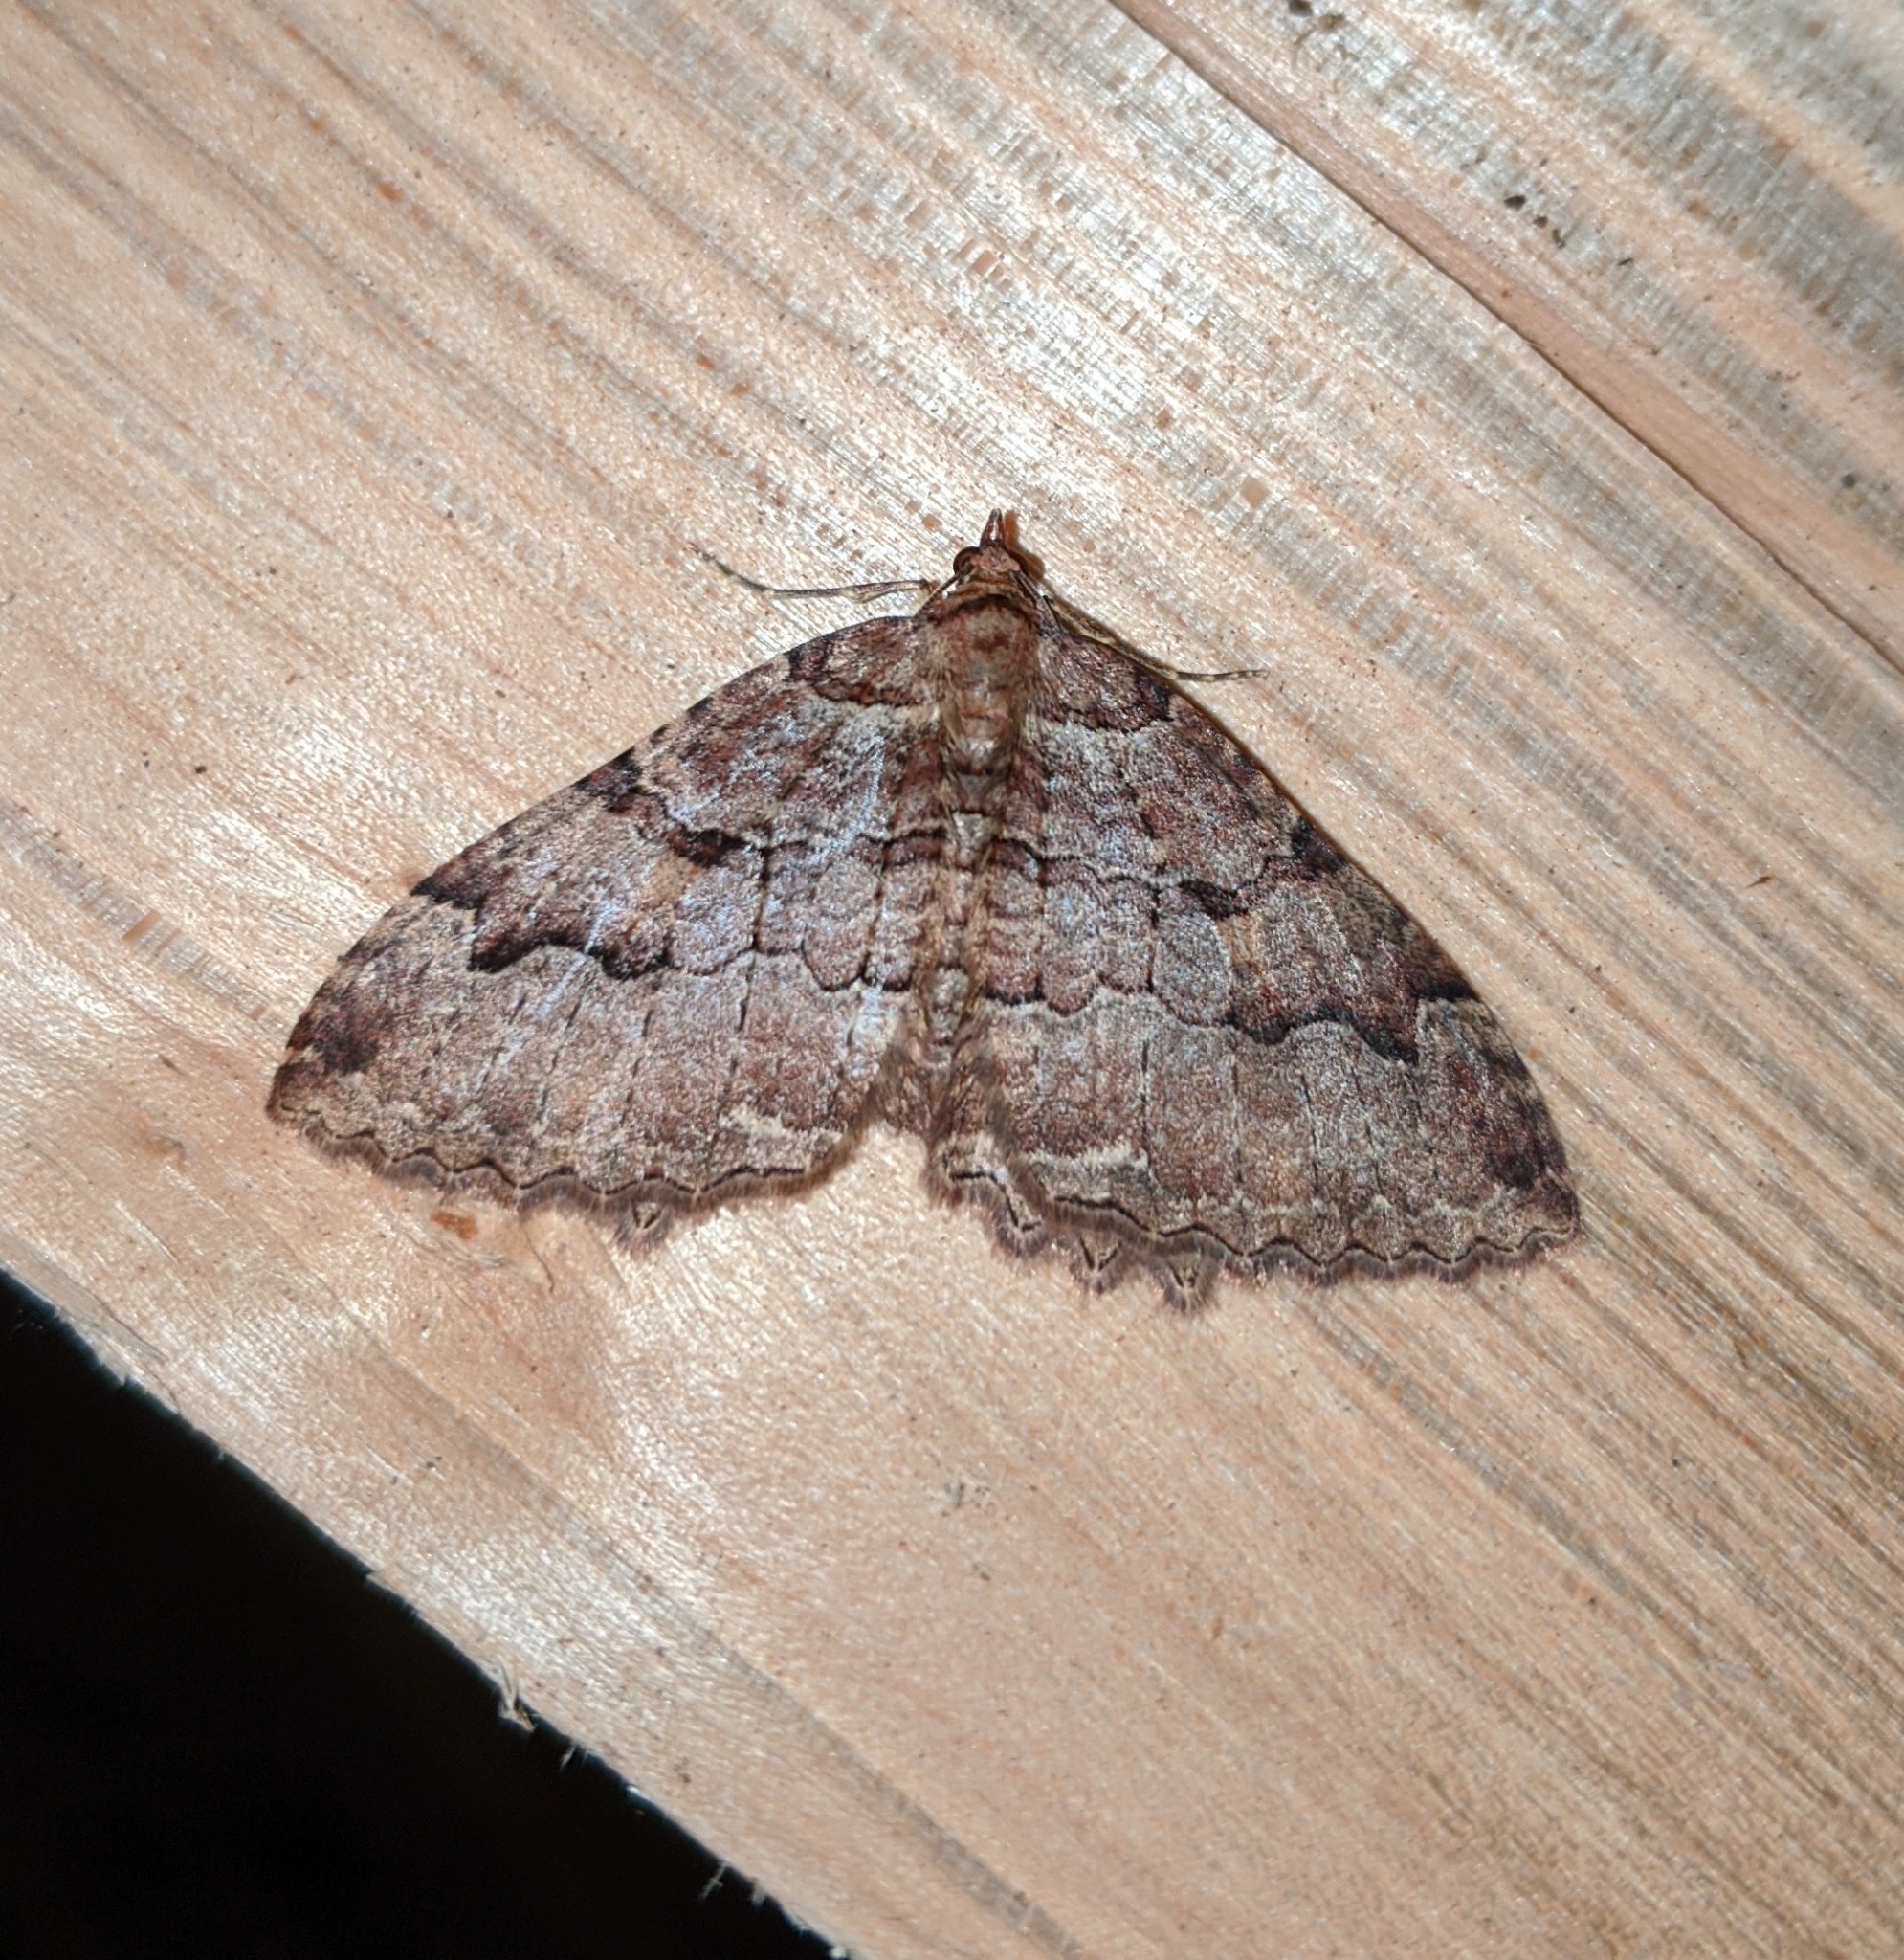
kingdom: Animalia
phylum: Arthropoda
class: Insecta
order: Lepidoptera
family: Geometridae
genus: Triphosa
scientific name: Triphosa haesitata
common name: Tissue moth
